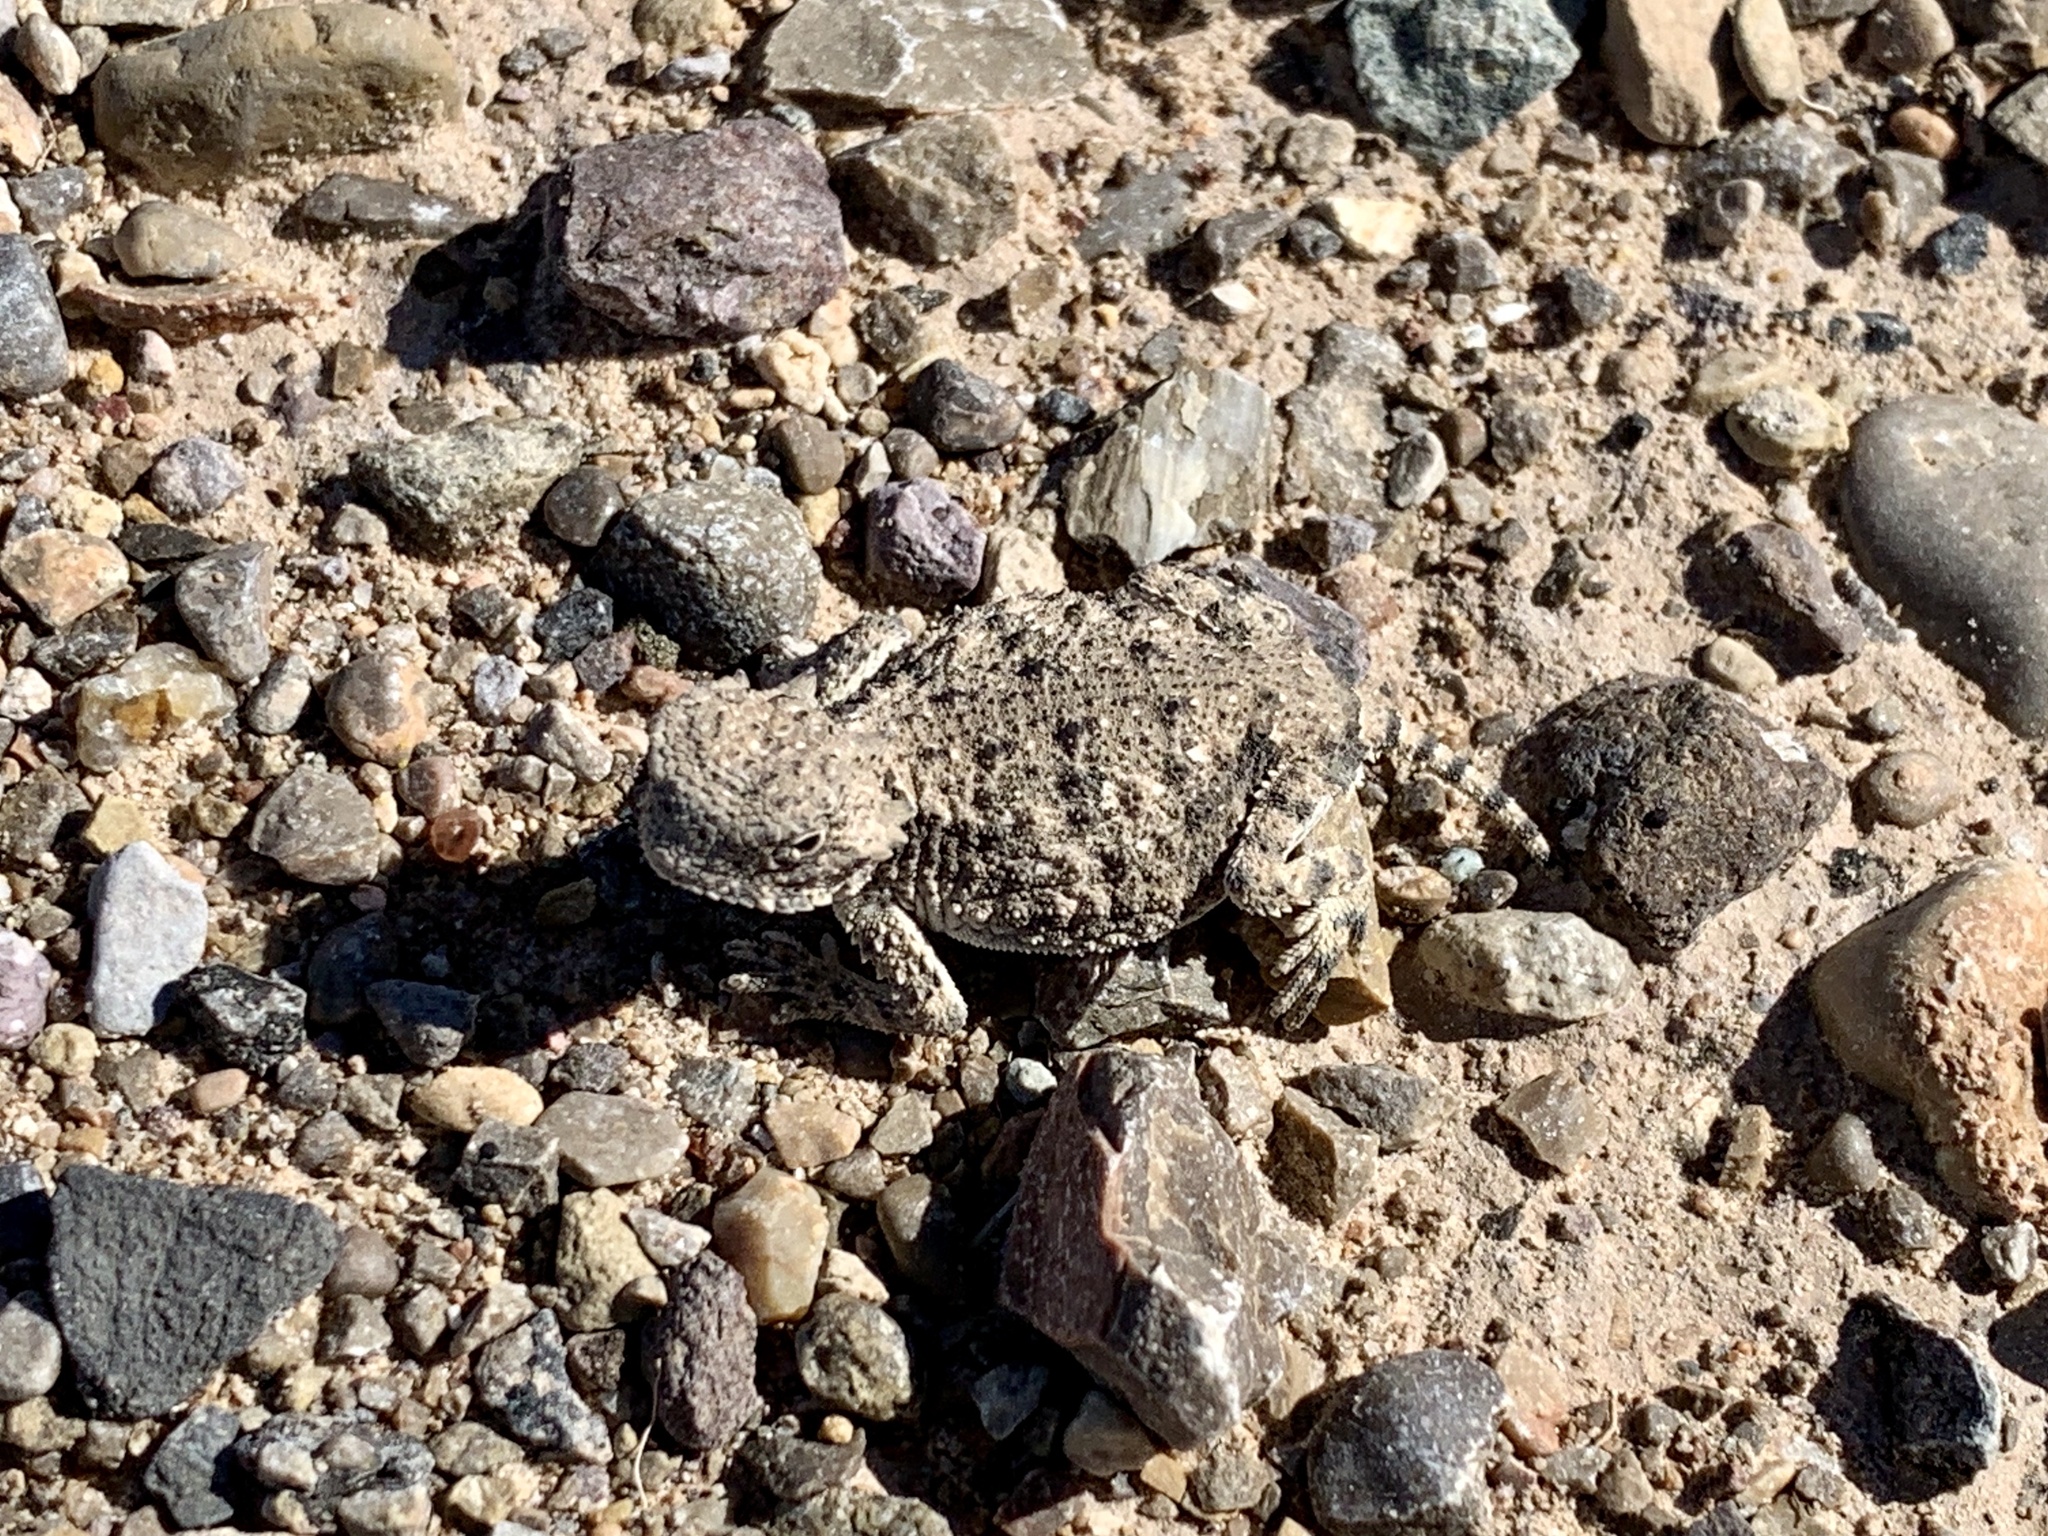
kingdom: Animalia
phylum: Chordata
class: Squamata
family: Phrynosomatidae
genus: Phrynosoma
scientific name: Phrynosoma modestum
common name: Roundtail horned lizard
